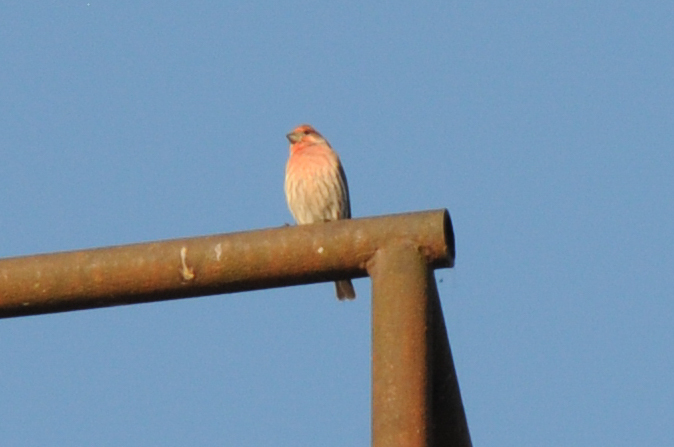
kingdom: Animalia
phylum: Chordata
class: Aves
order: Passeriformes
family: Fringillidae
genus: Haemorhous
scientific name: Haemorhous mexicanus
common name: House finch
